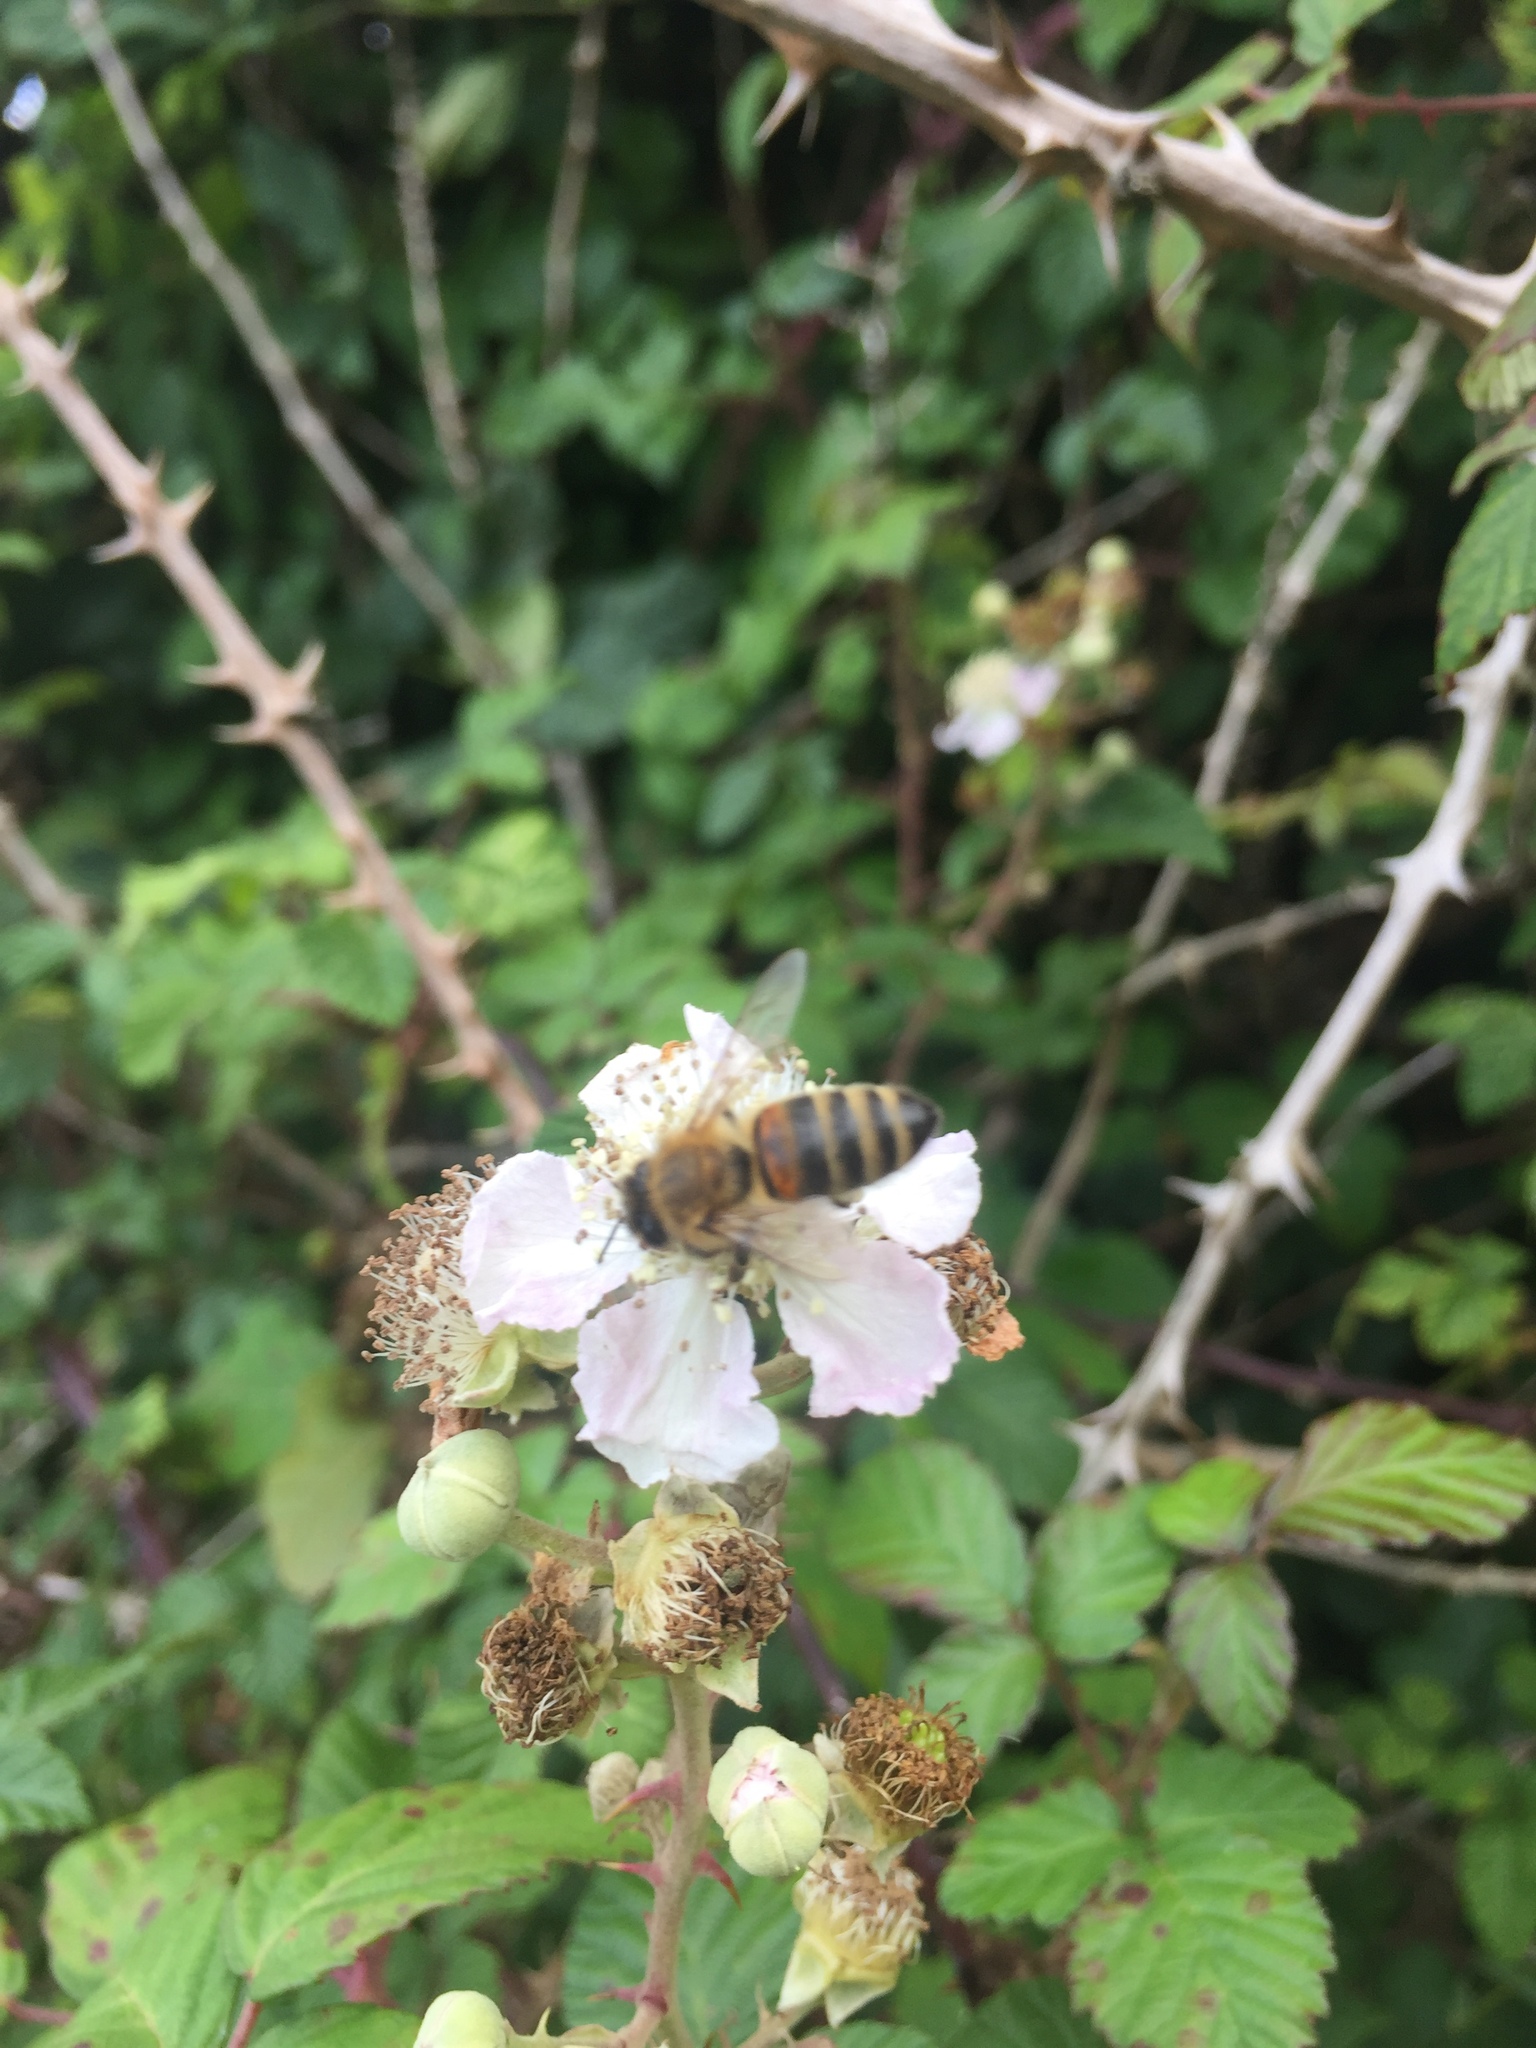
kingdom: Animalia
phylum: Arthropoda
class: Insecta
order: Hymenoptera
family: Apidae
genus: Apis
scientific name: Apis mellifera
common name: Honey bee
